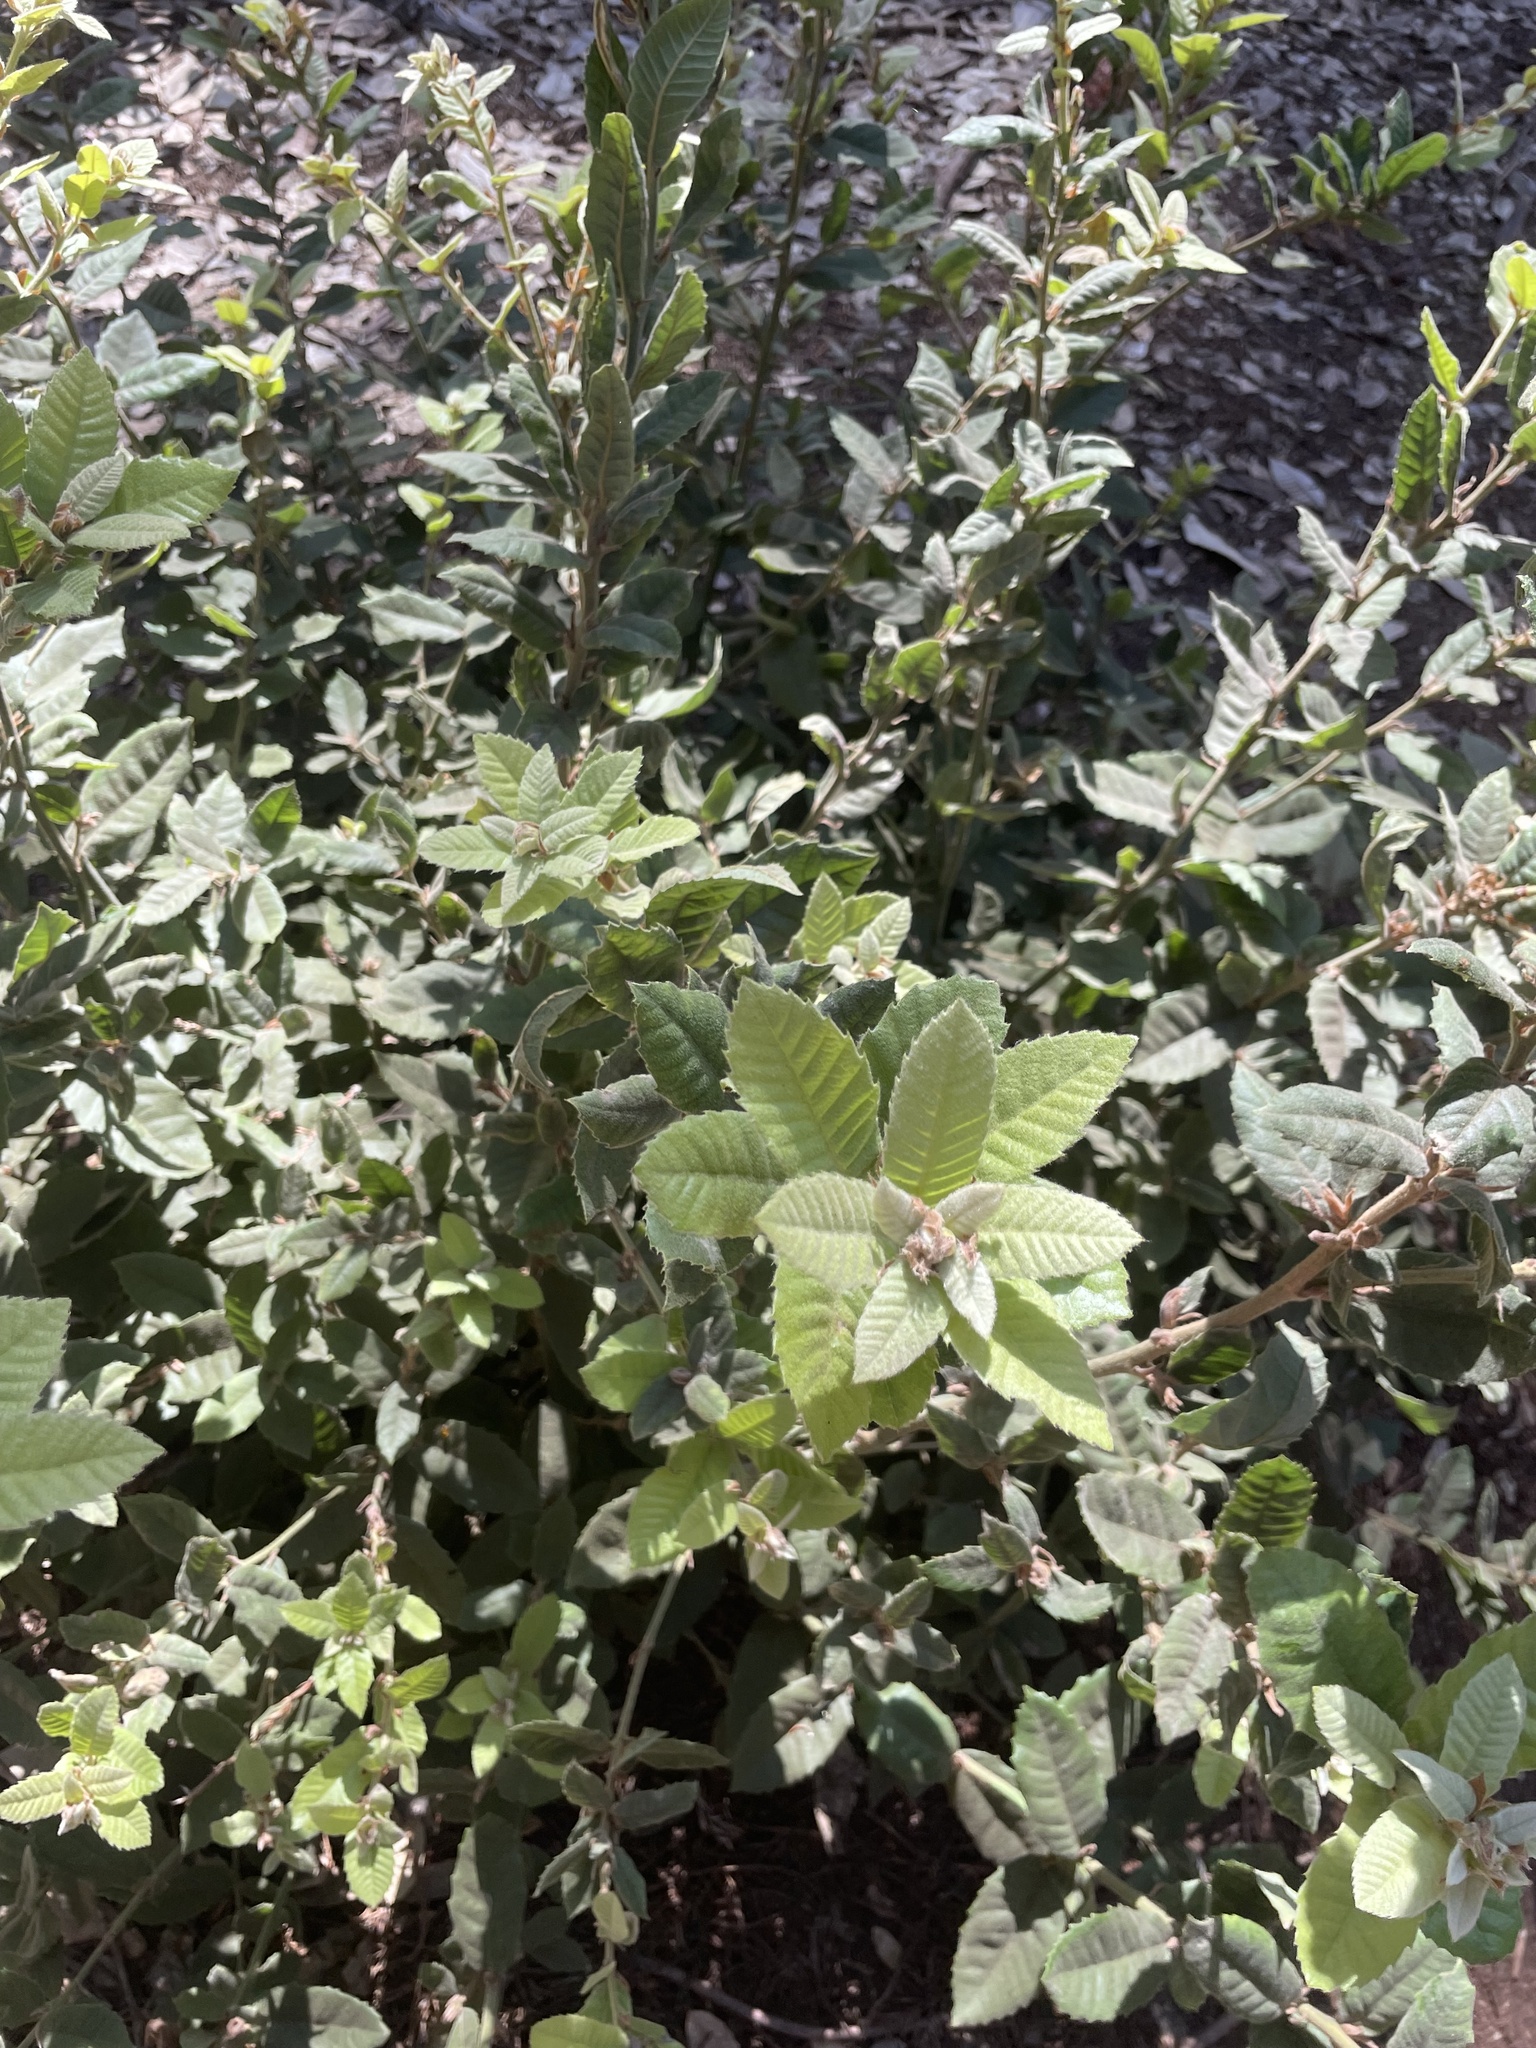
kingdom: Plantae
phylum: Tracheophyta
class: Magnoliopsida
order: Fagales
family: Fagaceae
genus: Notholithocarpus
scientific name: Notholithocarpus densiflorus
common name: Tan bark oak
